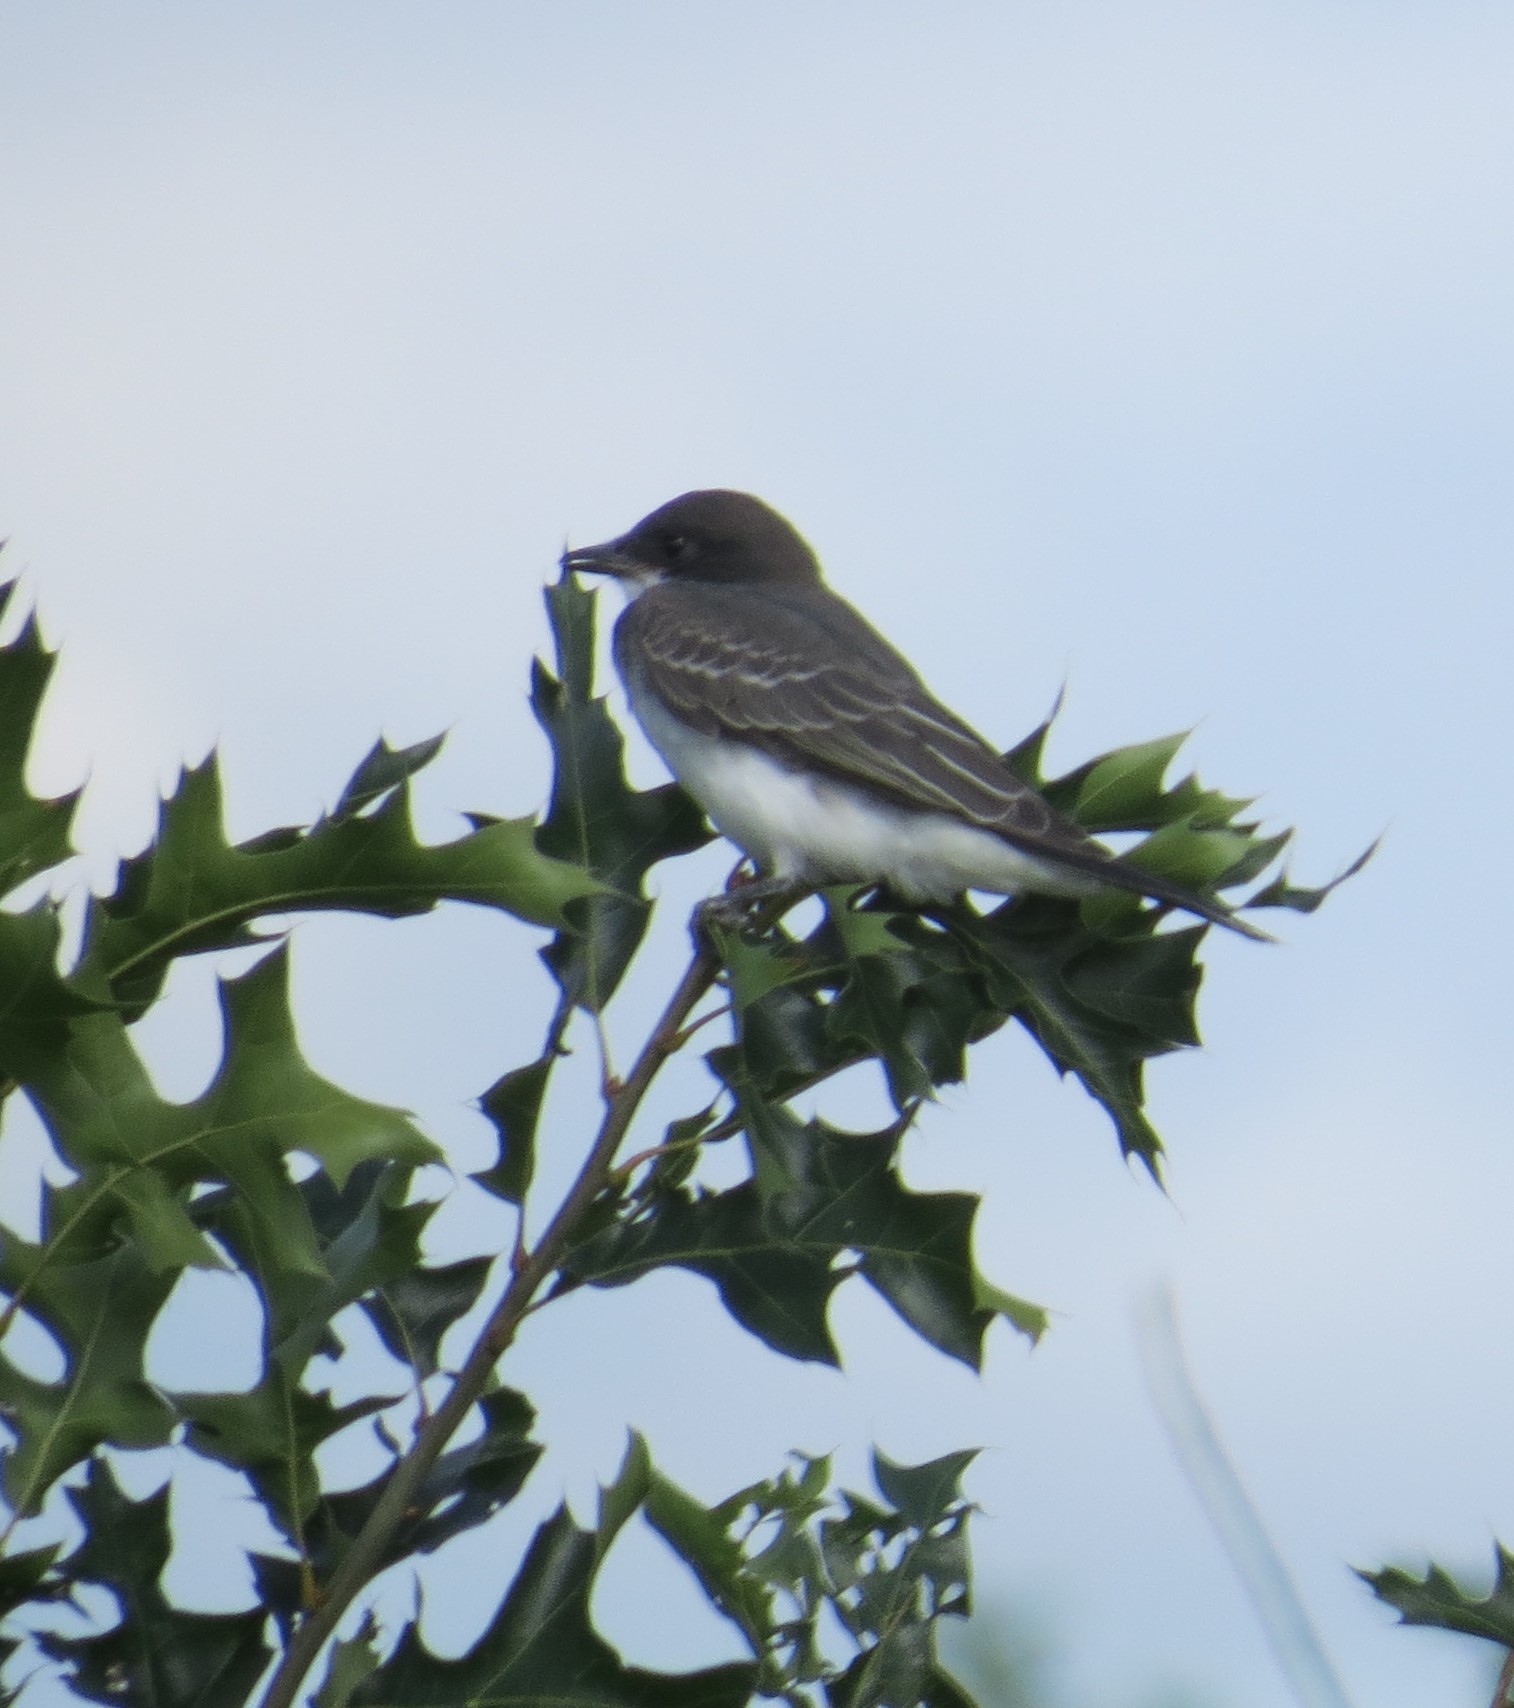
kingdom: Animalia
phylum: Chordata
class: Aves
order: Passeriformes
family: Tyrannidae
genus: Tyrannus
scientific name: Tyrannus tyrannus
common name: Eastern kingbird
